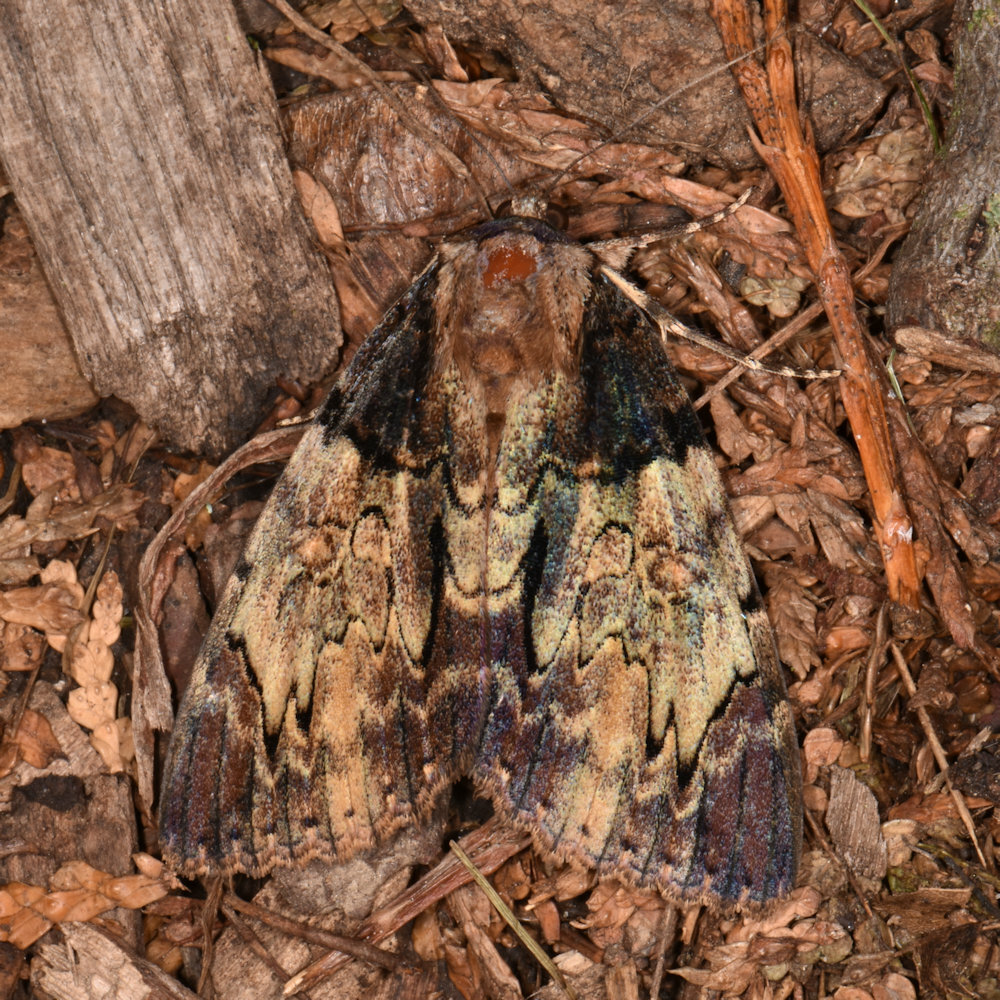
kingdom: Animalia
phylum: Arthropoda
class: Insecta
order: Lepidoptera
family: Erebidae
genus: Catocala
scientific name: Catocala nebulosa
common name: Clouded underwing
